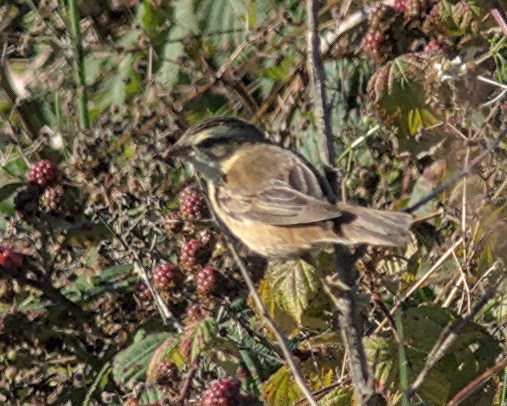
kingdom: Animalia
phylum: Chordata
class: Aves
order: Passeriformes
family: Acrocephalidae
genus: Acrocephalus
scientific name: Acrocephalus schoenobaenus
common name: Sedge warbler
